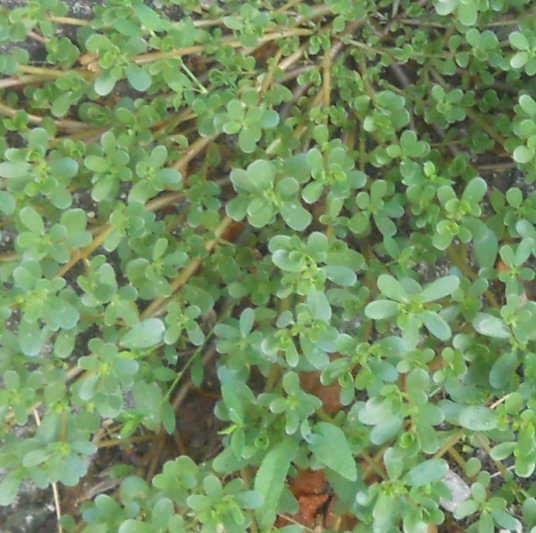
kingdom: Plantae
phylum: Tracheophyta
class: Magnoliopsida
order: Caryophyllales
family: Portulacaceae
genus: Portulaca
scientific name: Portulaca oleracea
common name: Common purslane
